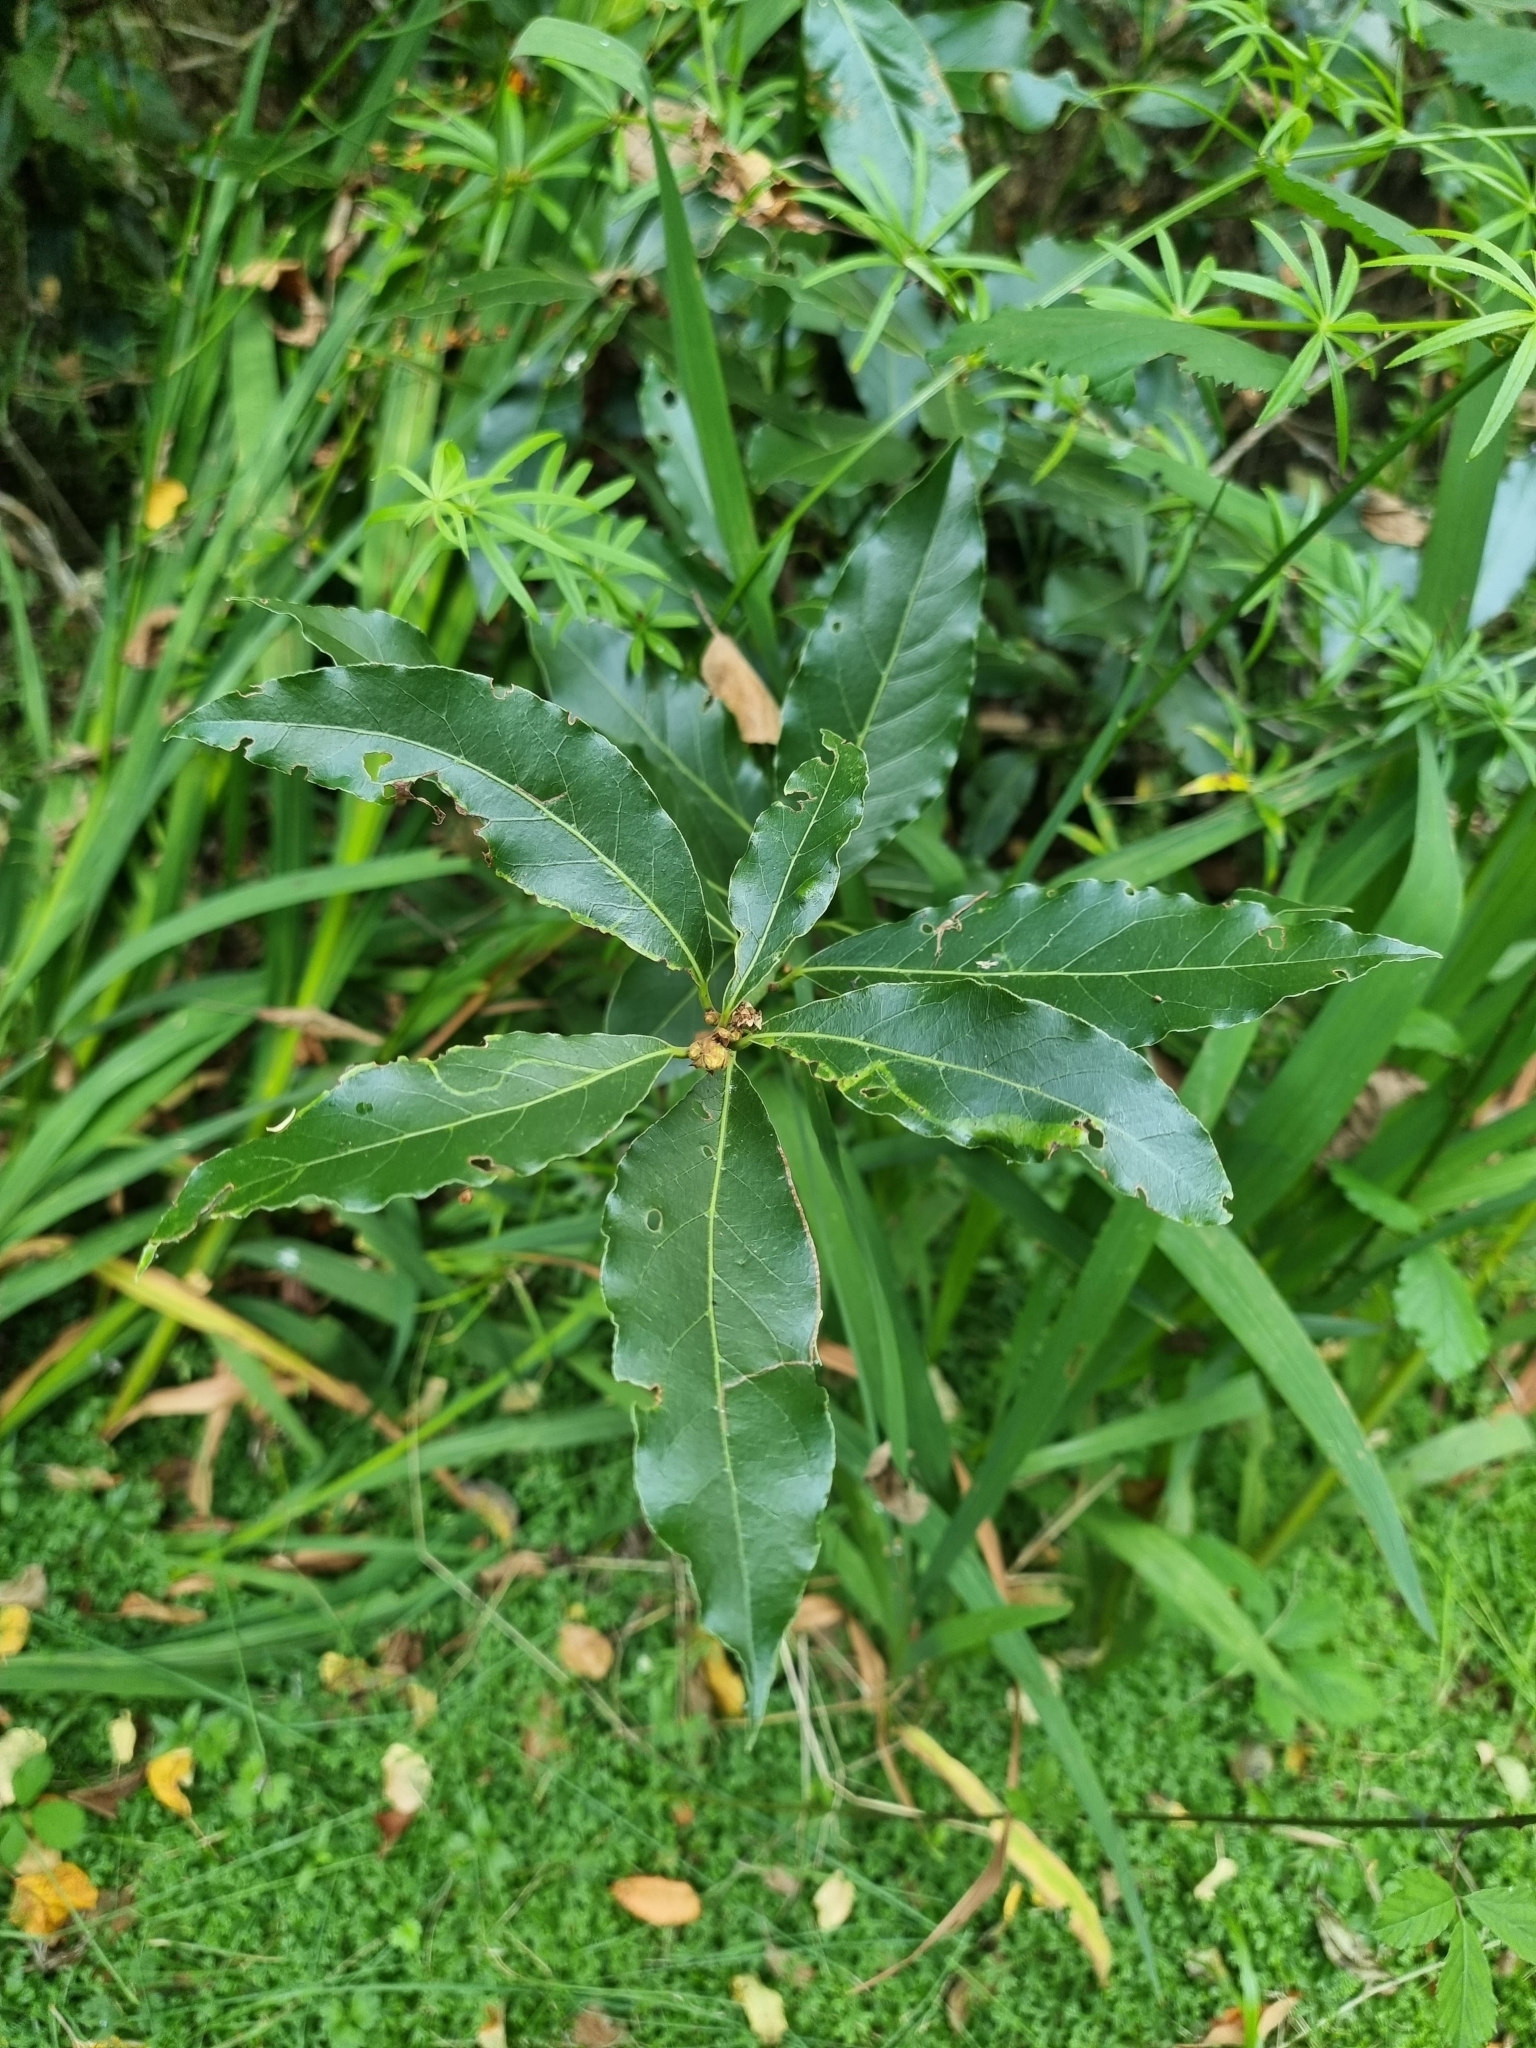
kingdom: Plantae
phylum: Tracheophyta
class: Magnoliopsida
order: Laurales
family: Lauraceae
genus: Laurus
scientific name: Laurus novocanariensis
